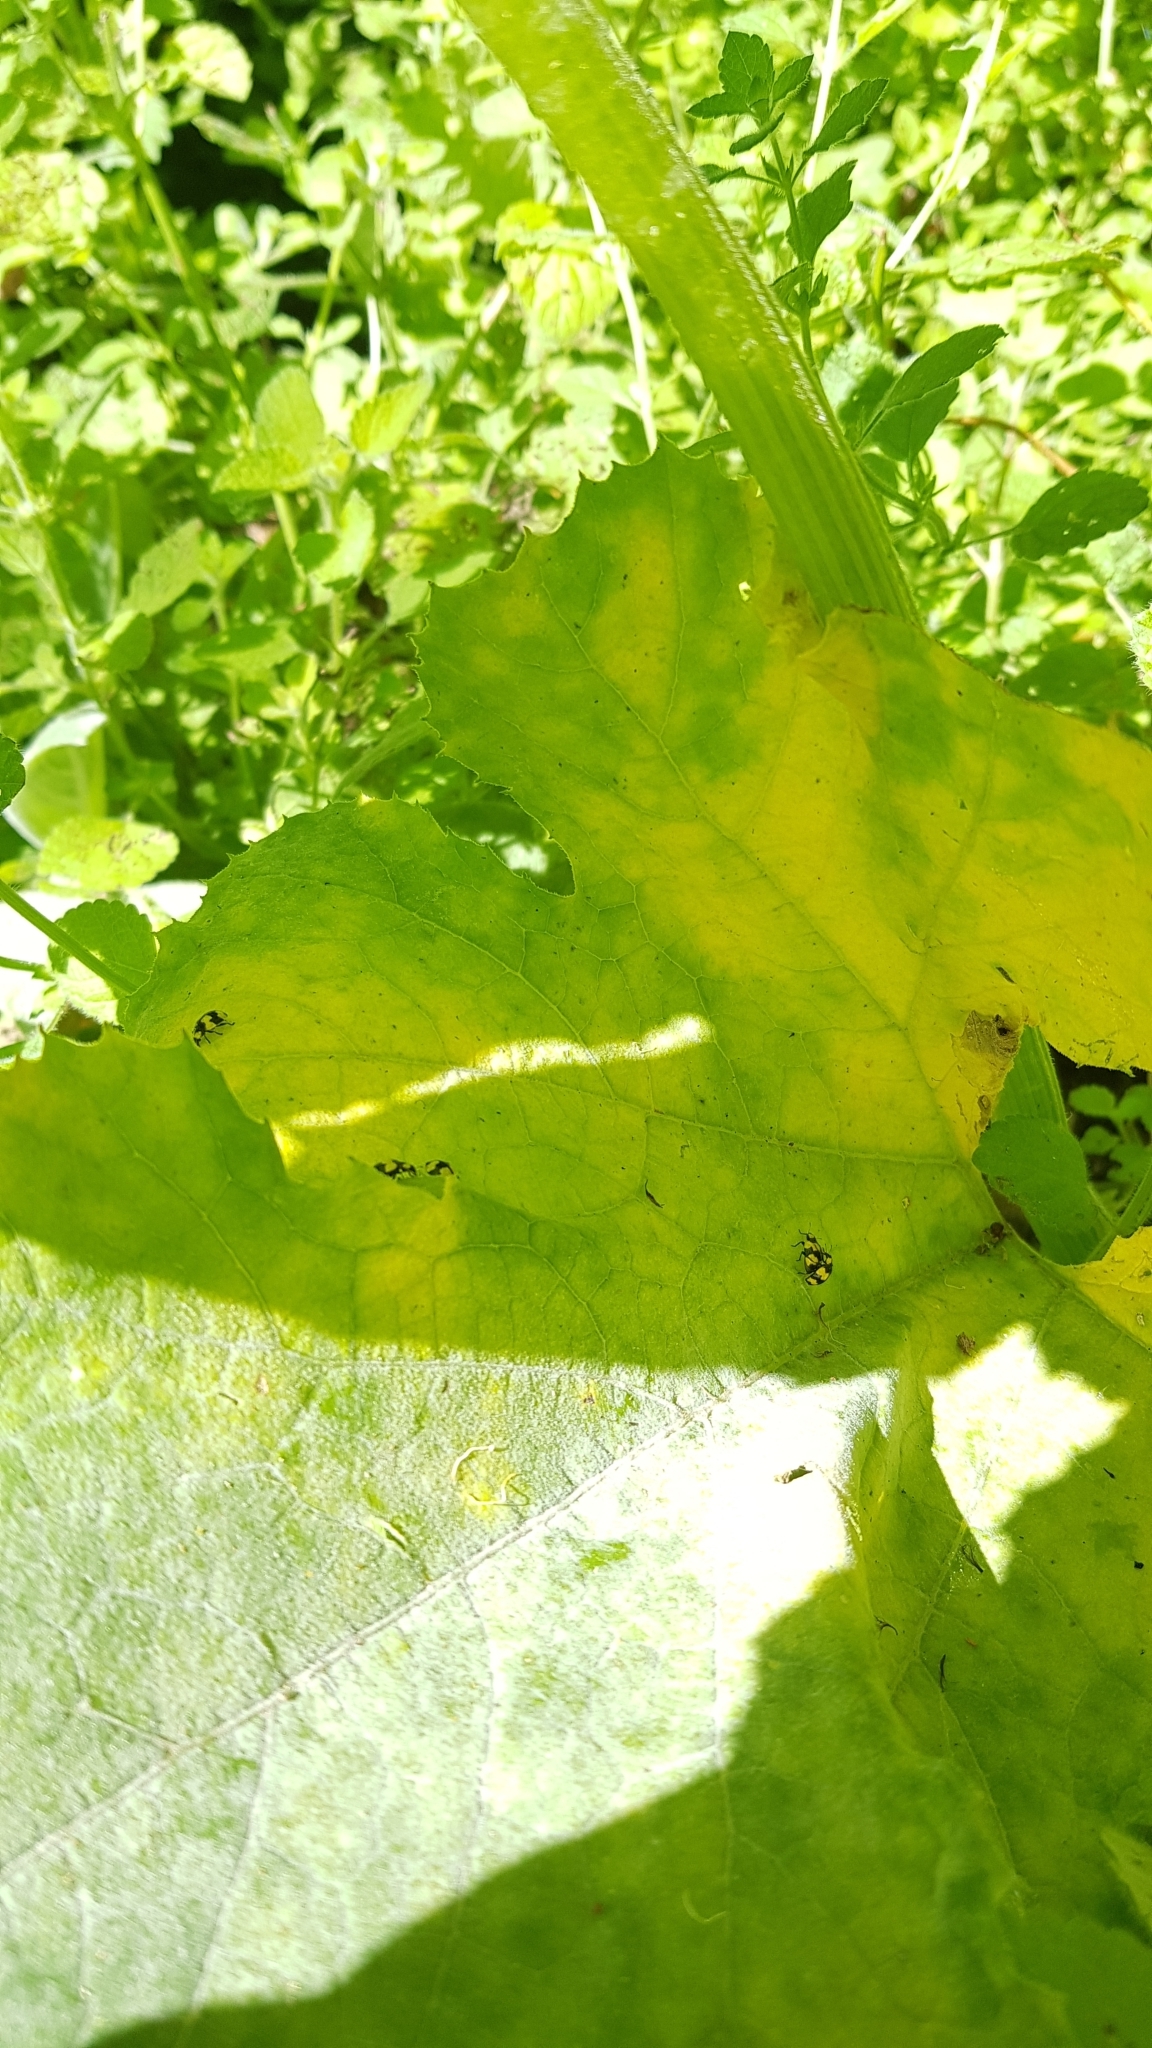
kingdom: Animalia
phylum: Arthropoda
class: Insecta
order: Coleoptera
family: Coccinellidae
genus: Illeis
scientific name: Illeis galbula
